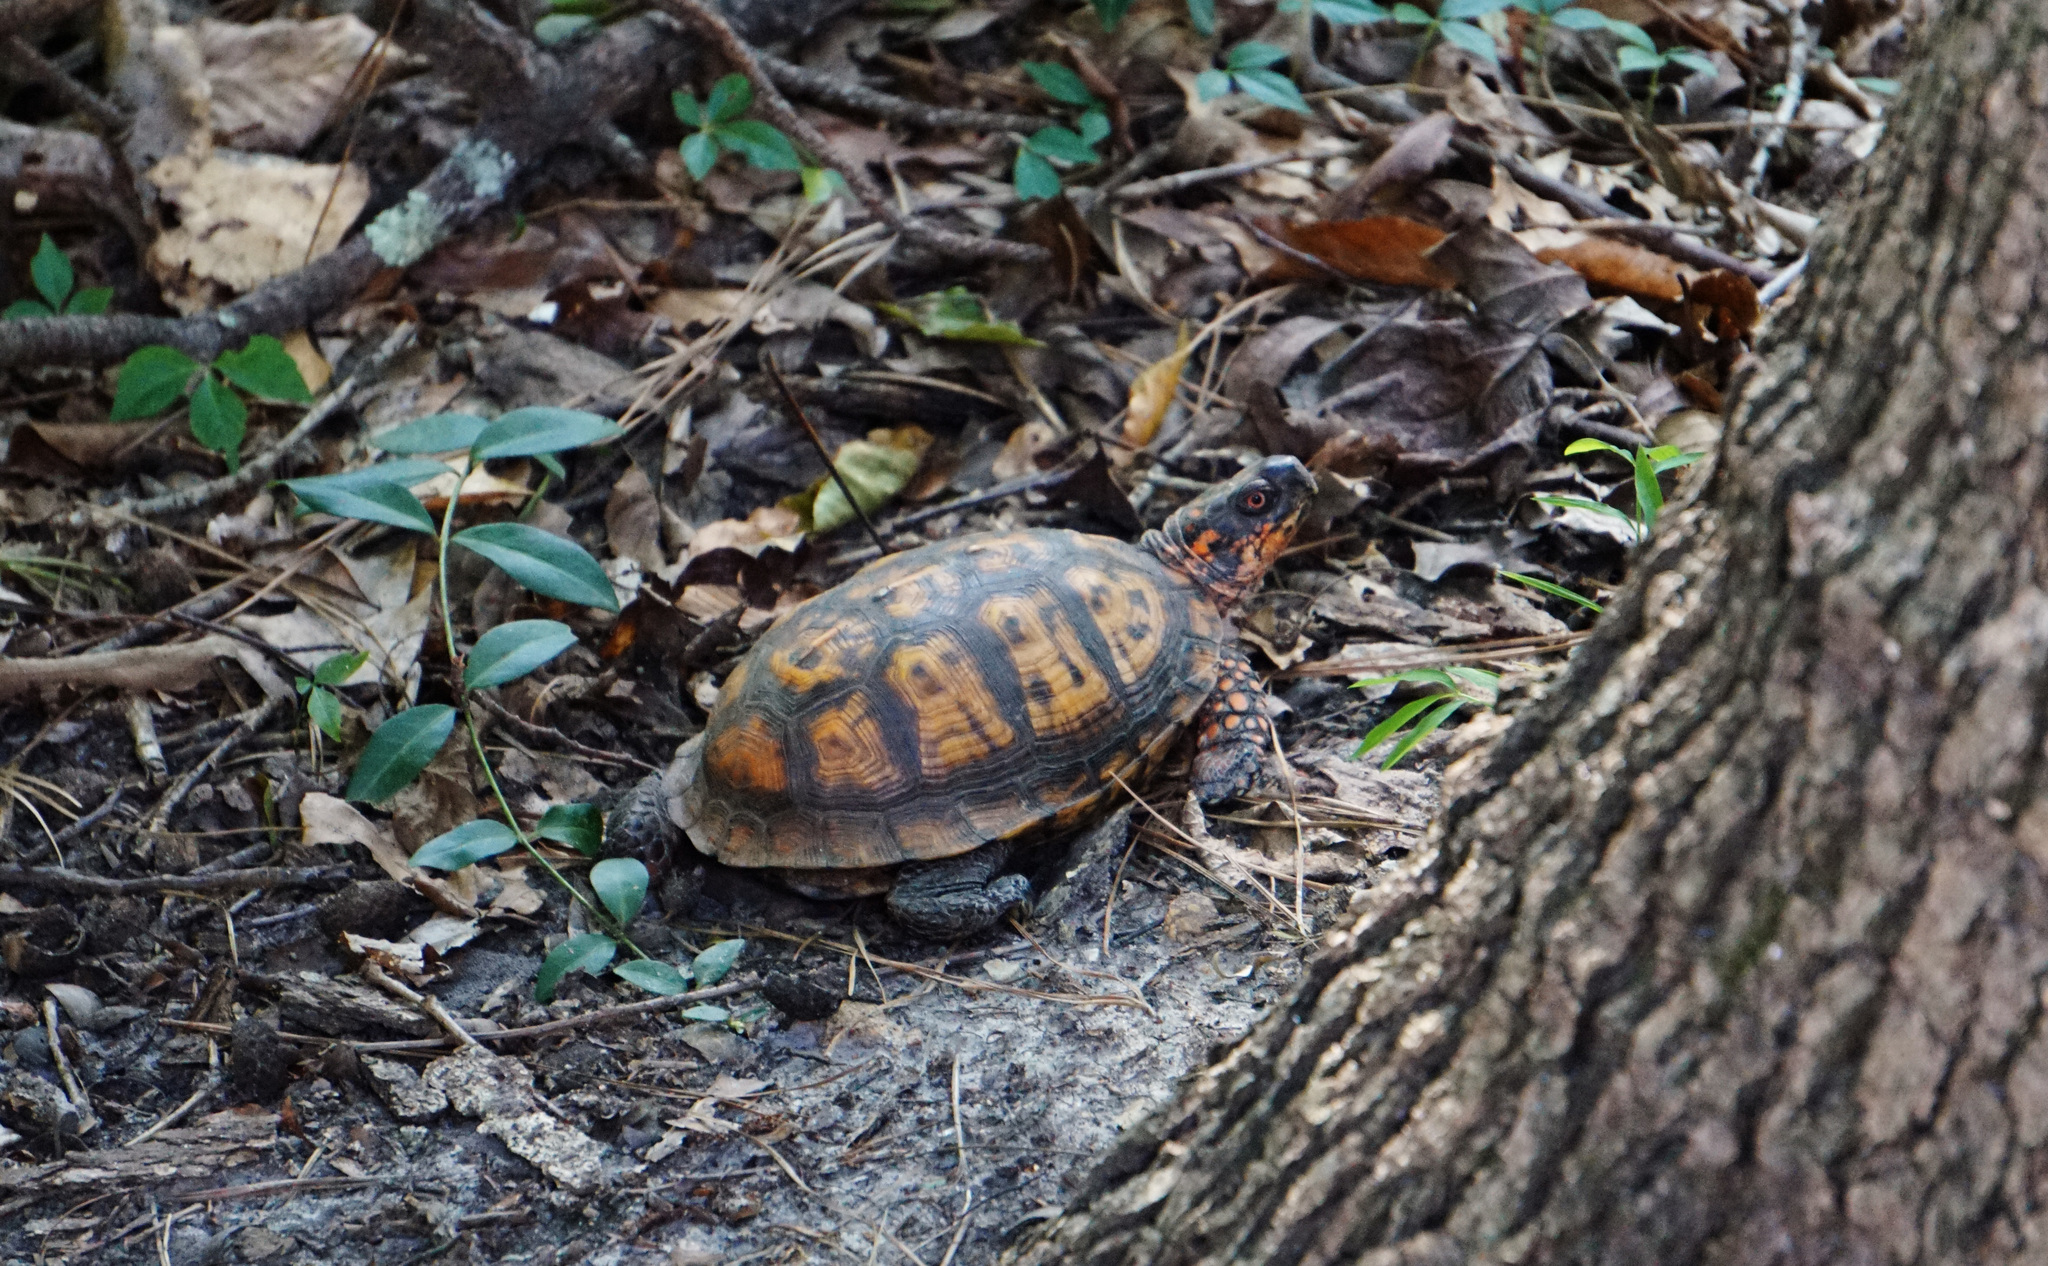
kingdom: Animalia
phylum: Chordata
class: Testudines
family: Emydidae
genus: Terrapene
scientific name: Terrapene carolina
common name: Common box turtle
